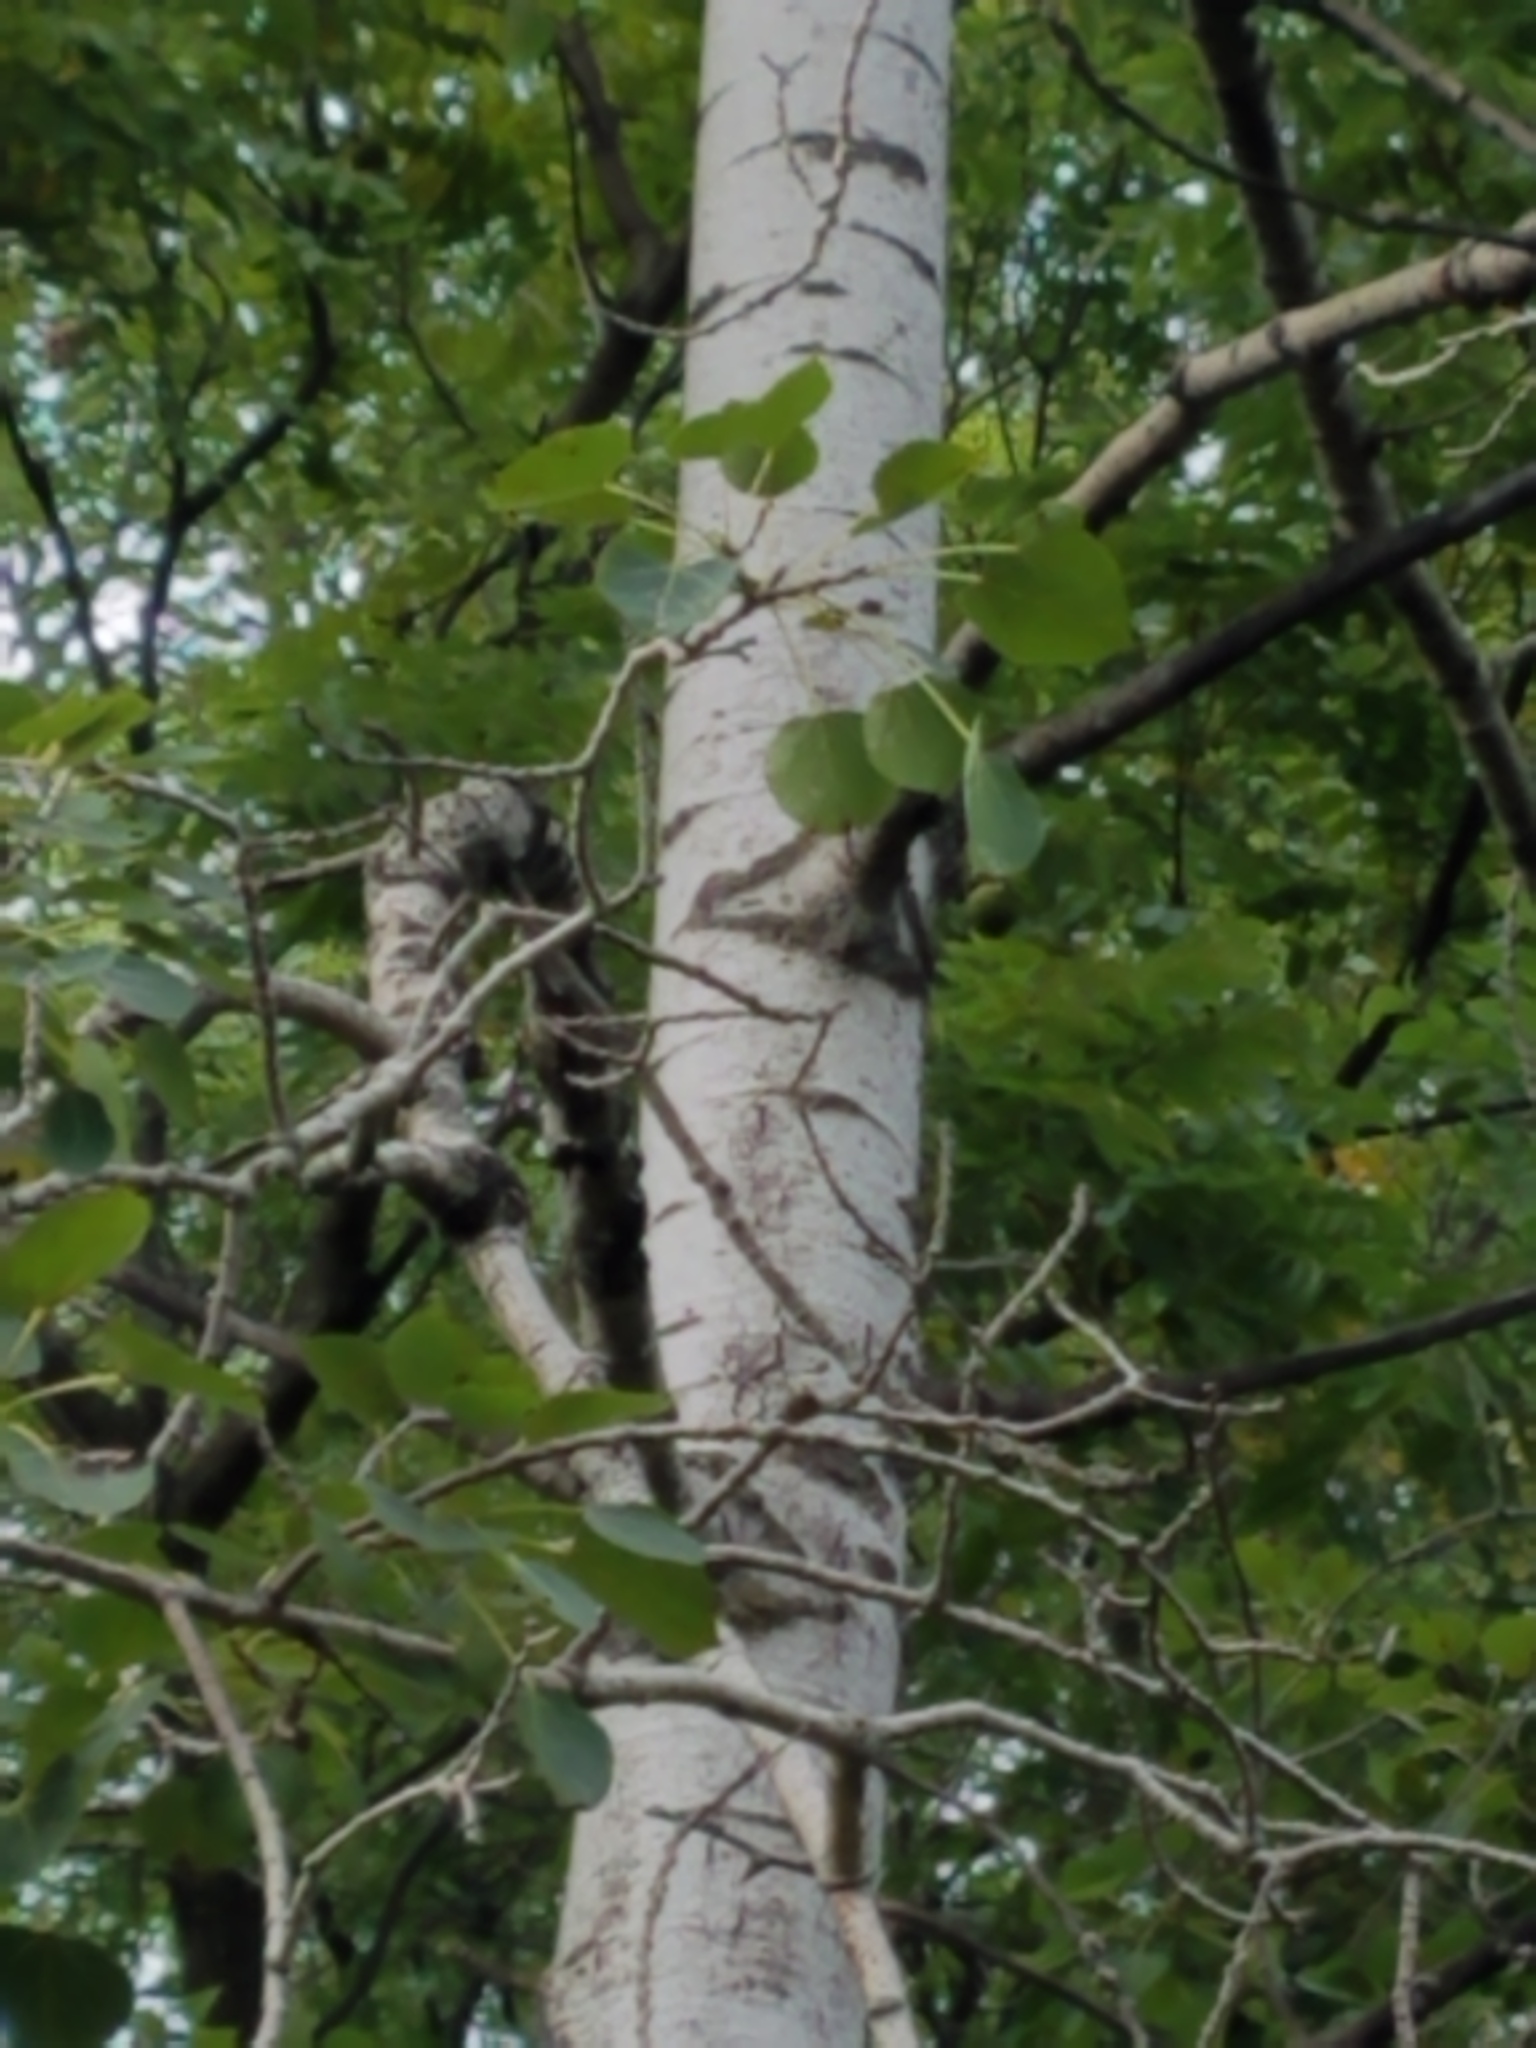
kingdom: Plantae
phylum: Tracheophyta
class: Magnoliopsida
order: Malpighiales
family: Salicaceae
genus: Populus
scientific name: Populus tremuloides
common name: Quaking aspen
